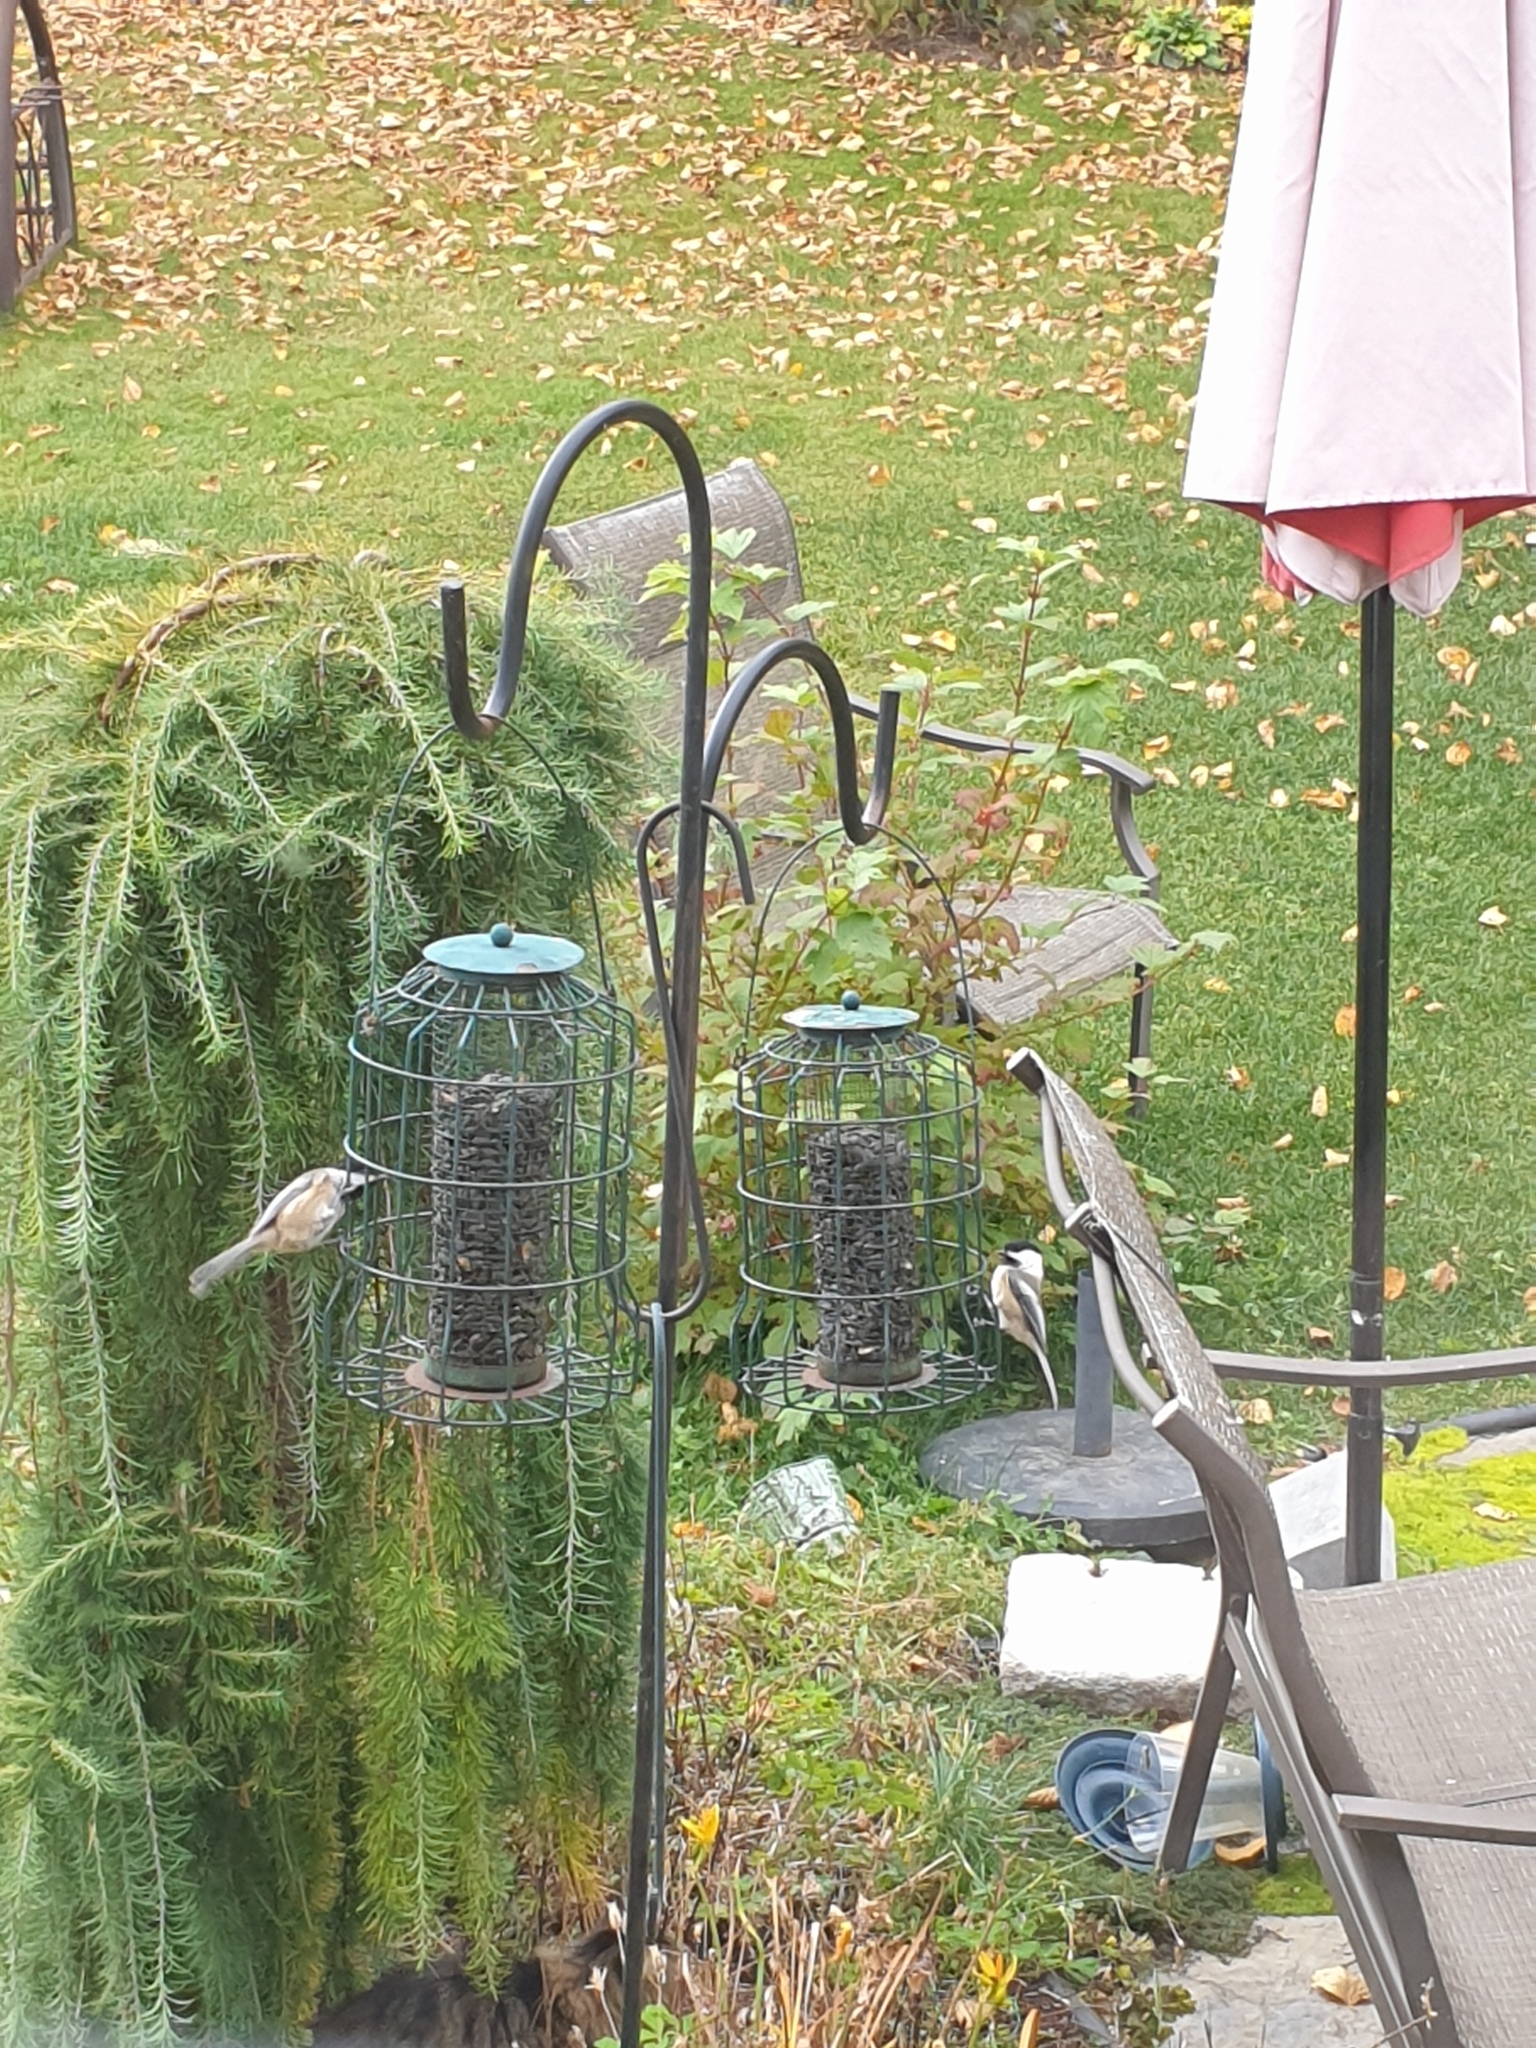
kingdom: Animalia
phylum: Chordata
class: Aves
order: Passeriformes
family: Paridae
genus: Poecile
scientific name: Poecile atricapillus
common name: Black-capped chickadee
